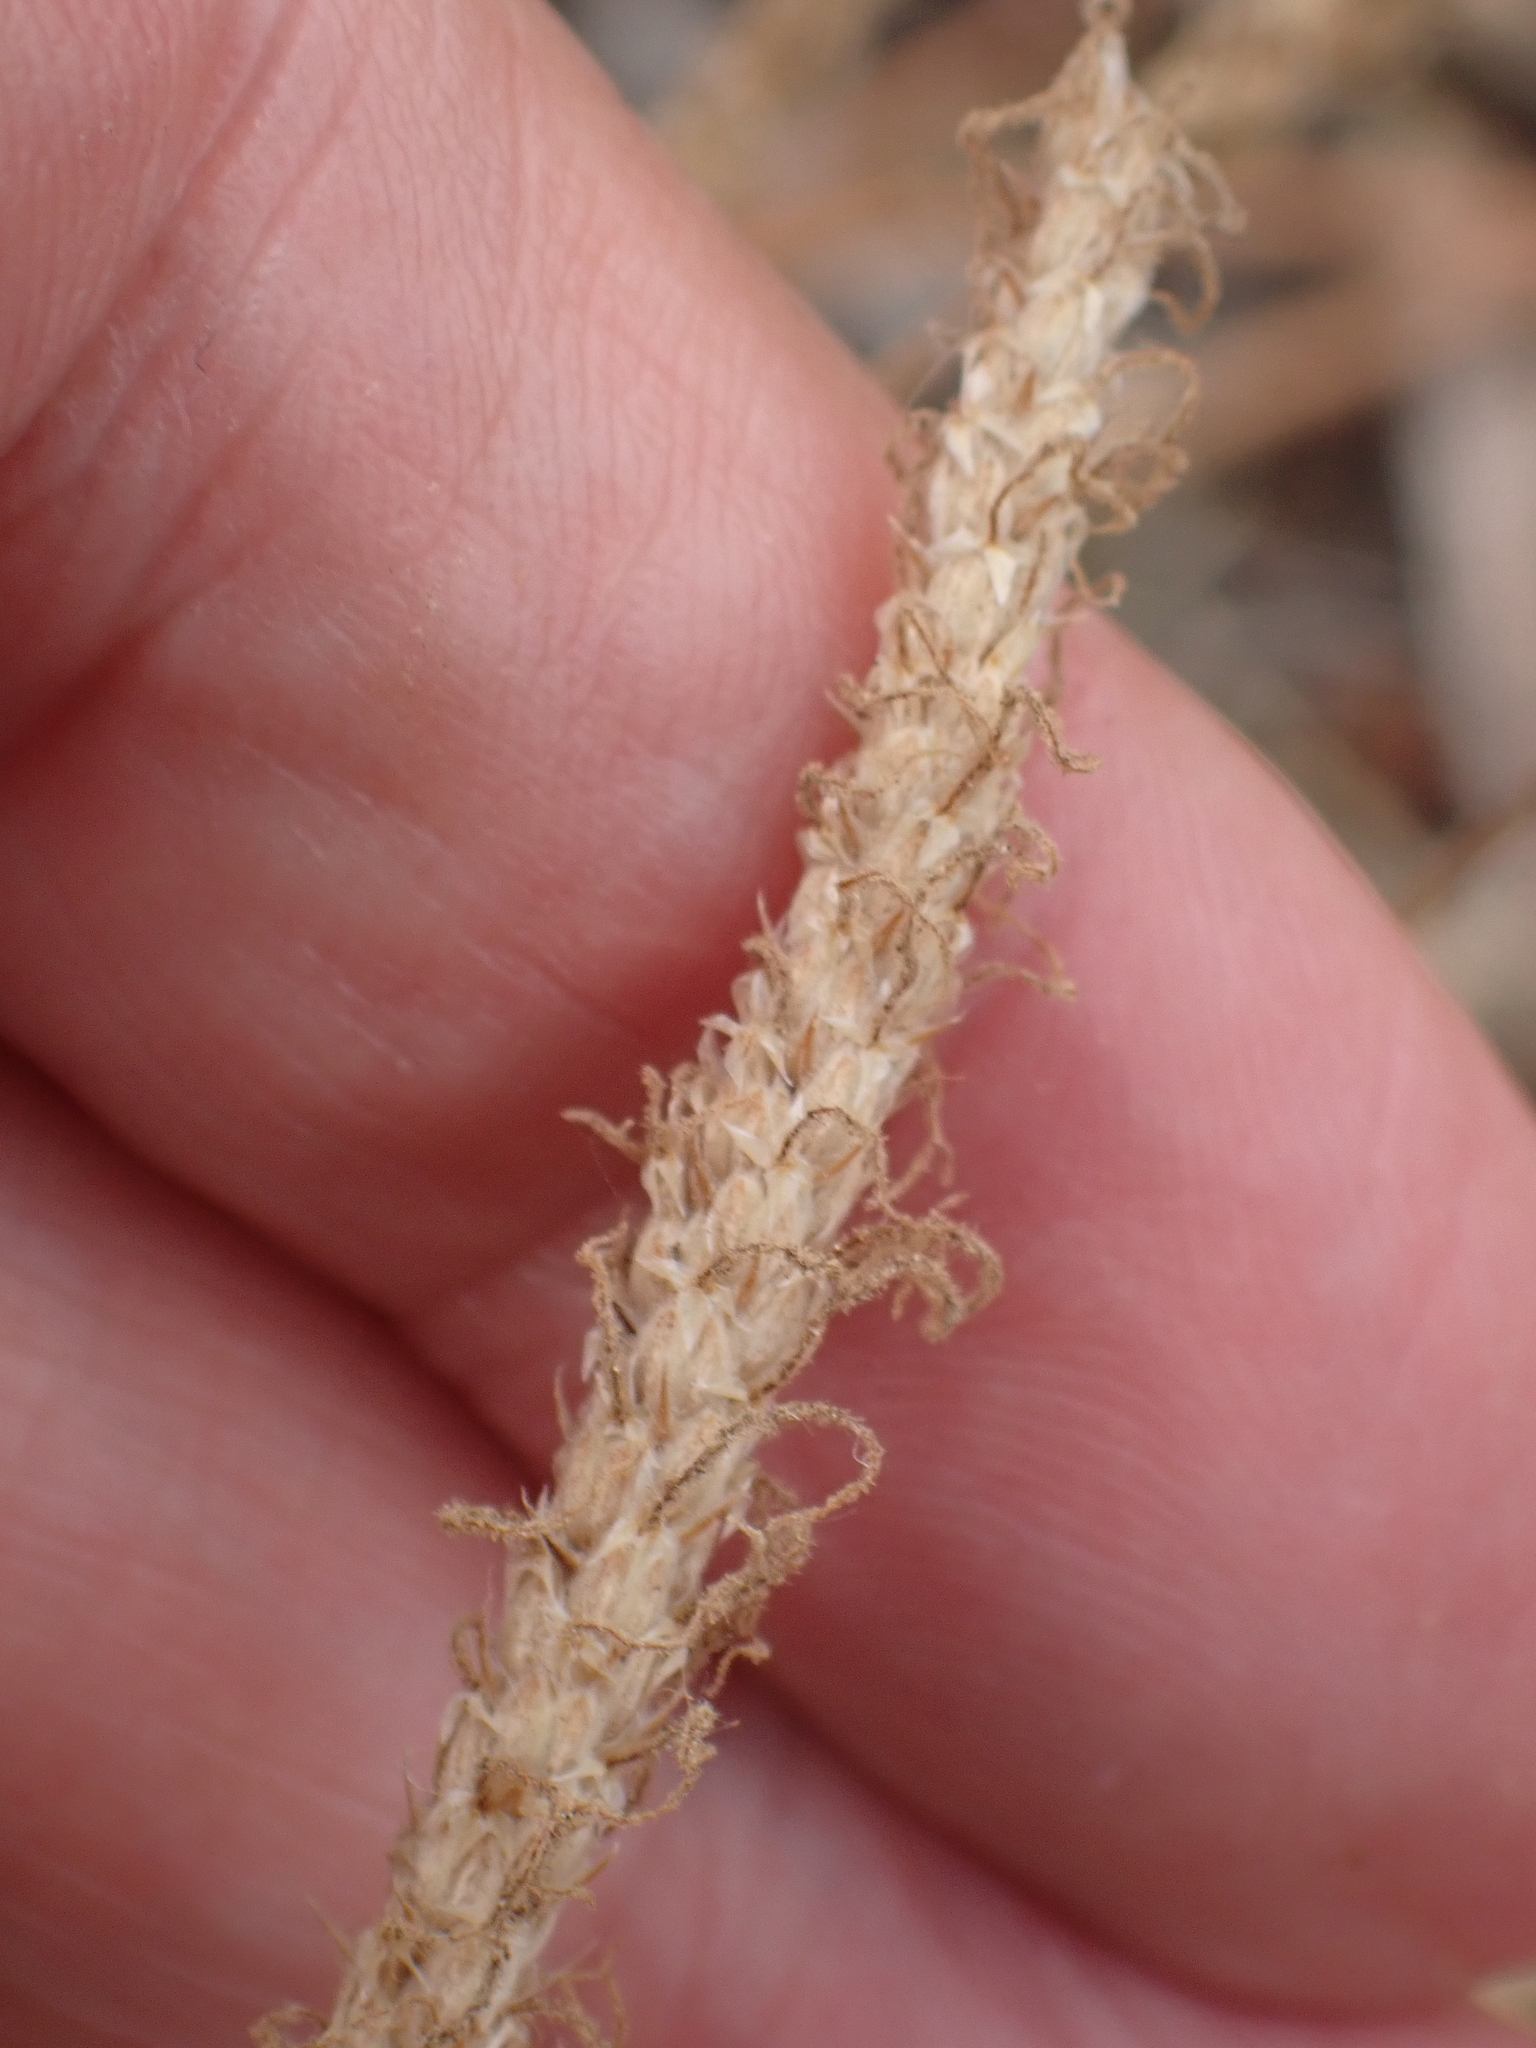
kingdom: Plantae
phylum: Tracheophyta
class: Magnoliopsida
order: Lamiales
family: Plantaginaceae
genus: Plantago
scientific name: Plantago coronopus
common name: Buck's-horn plantain
